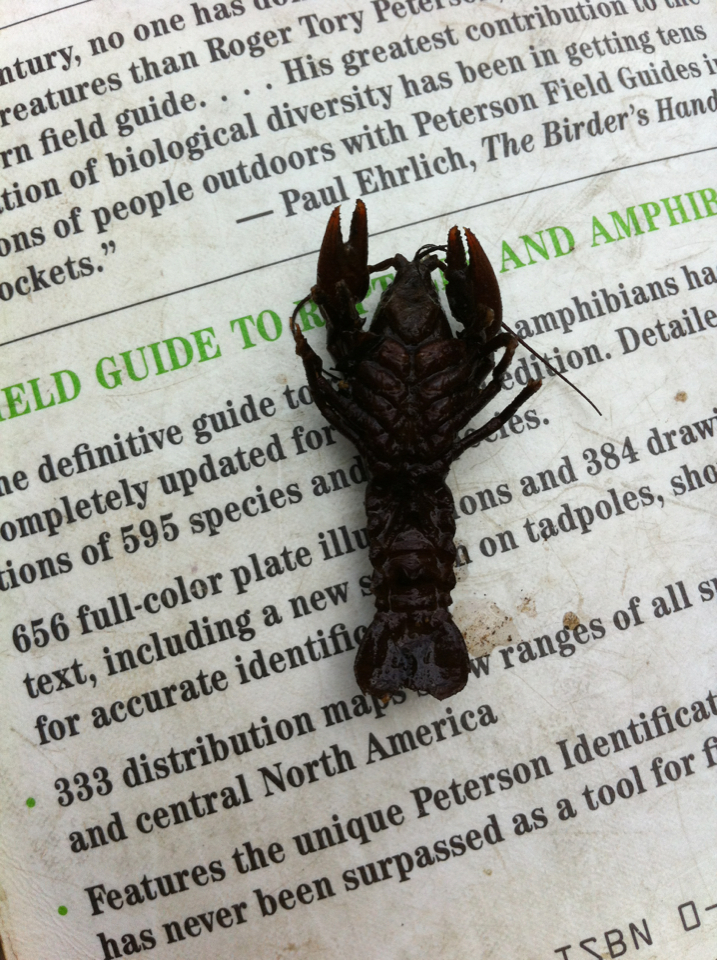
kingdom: Animalia
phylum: Arthropoda
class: Malacostraca
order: Decapoda
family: Cambaridae
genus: Cambarus
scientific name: Cambarus bartonii
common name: Appalachian brook crayfish
